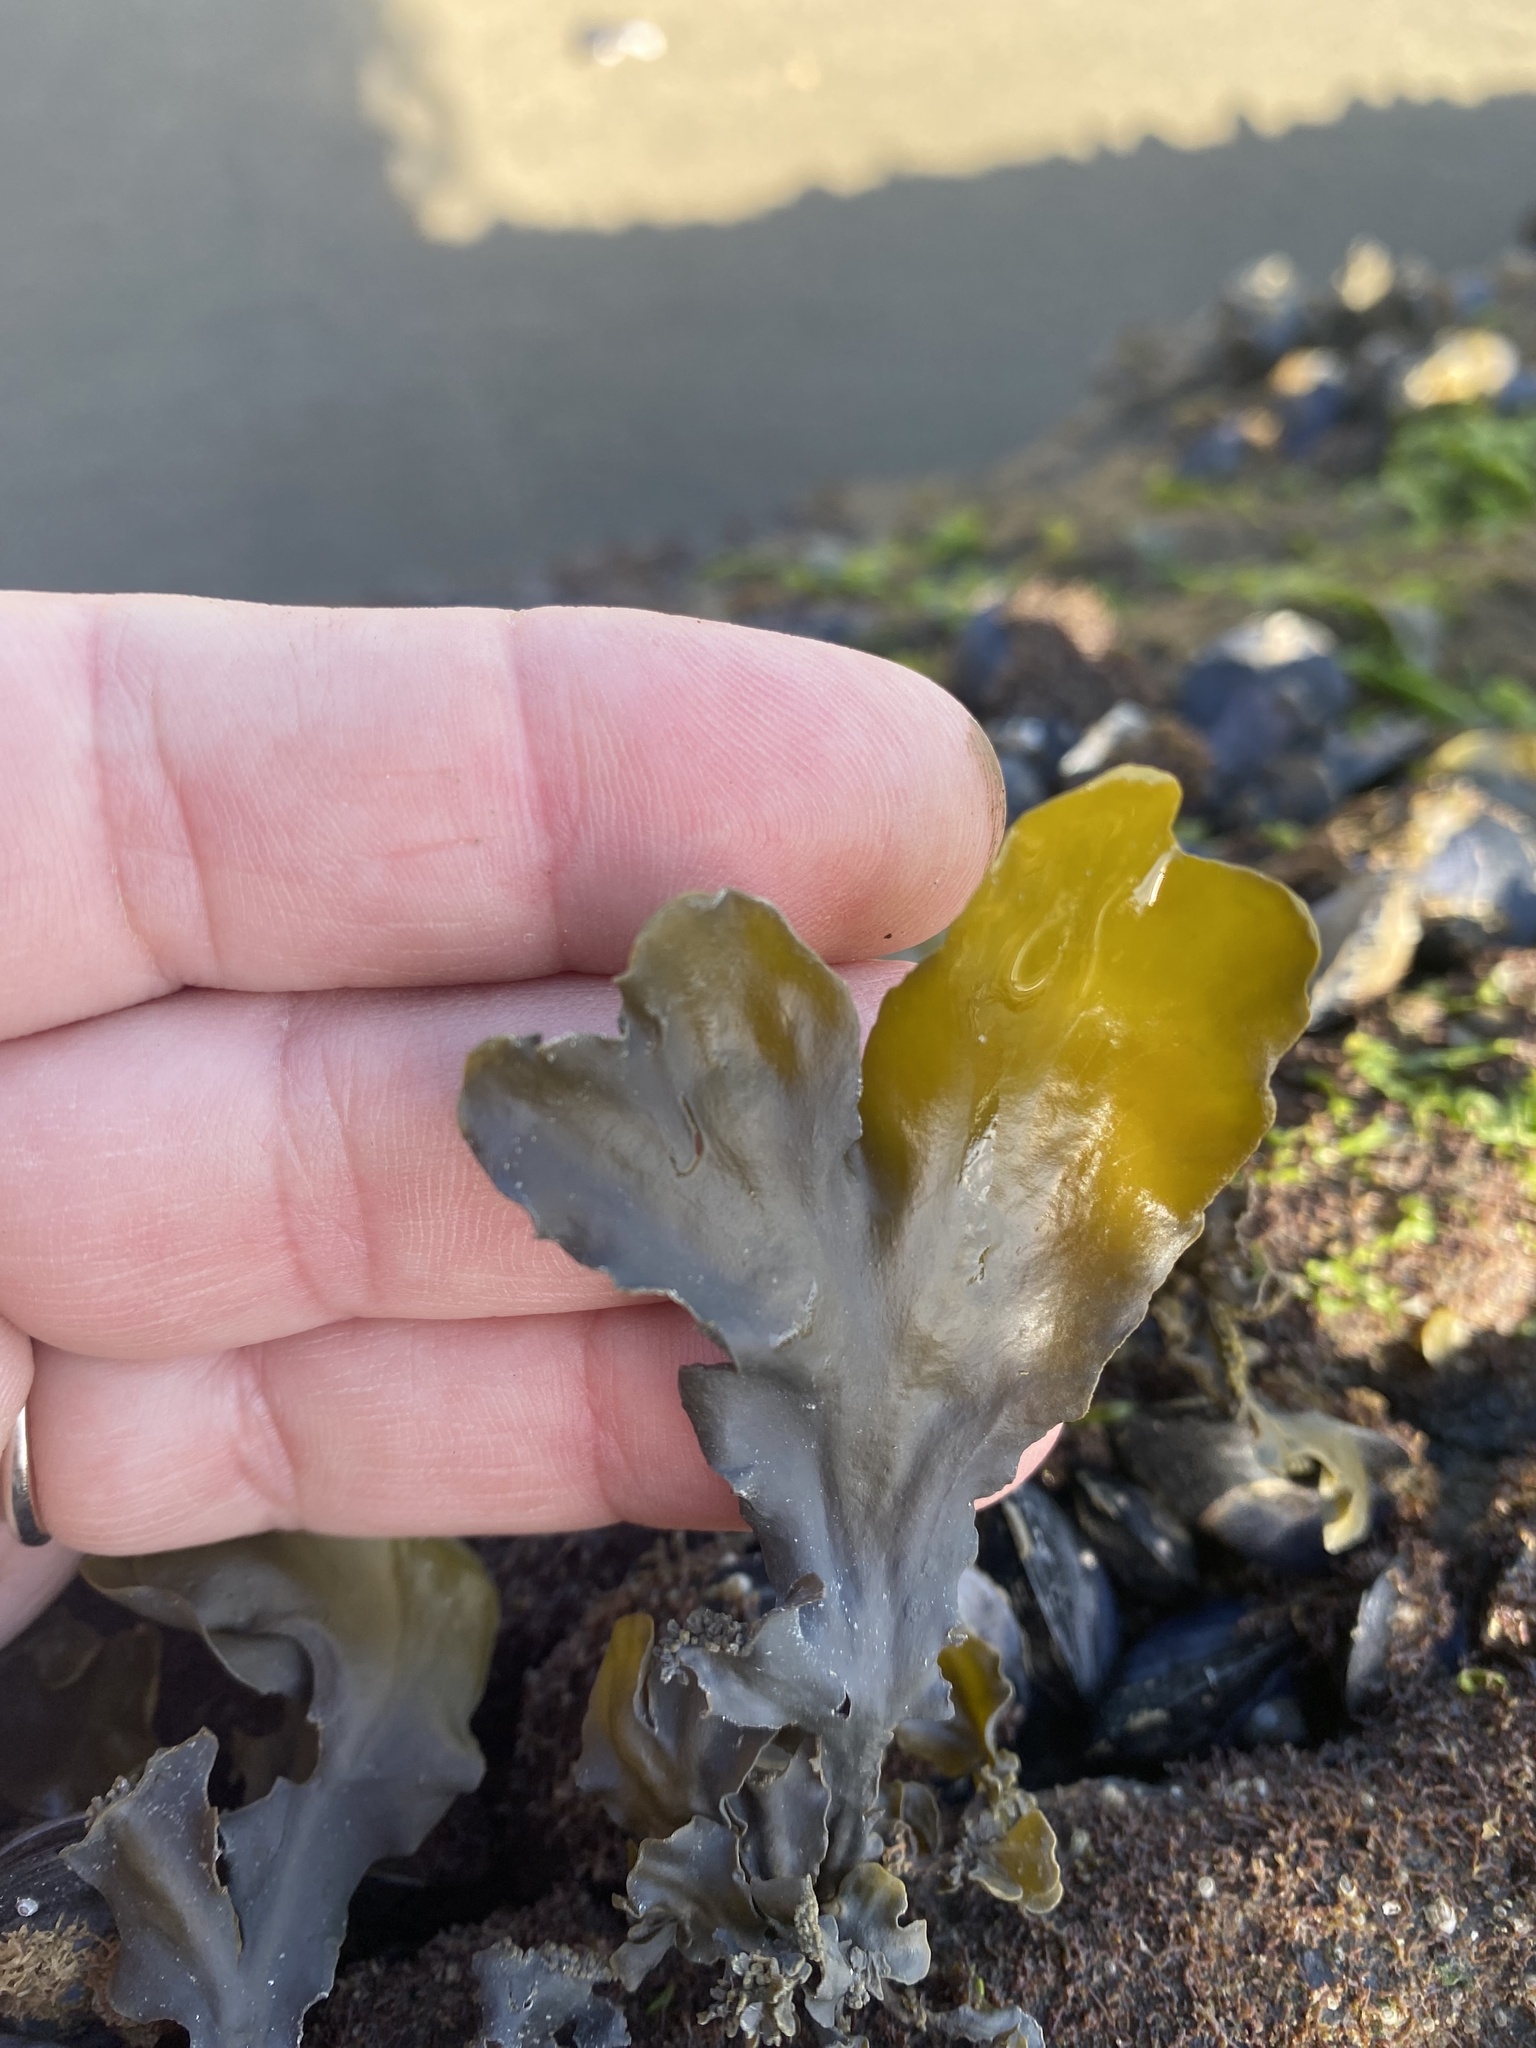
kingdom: Chromista
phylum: Ochrophyta
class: Phaeophyceae
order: Fucales
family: Fucaceae
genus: Fucus
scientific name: Fucus distichus
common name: Rockweed
